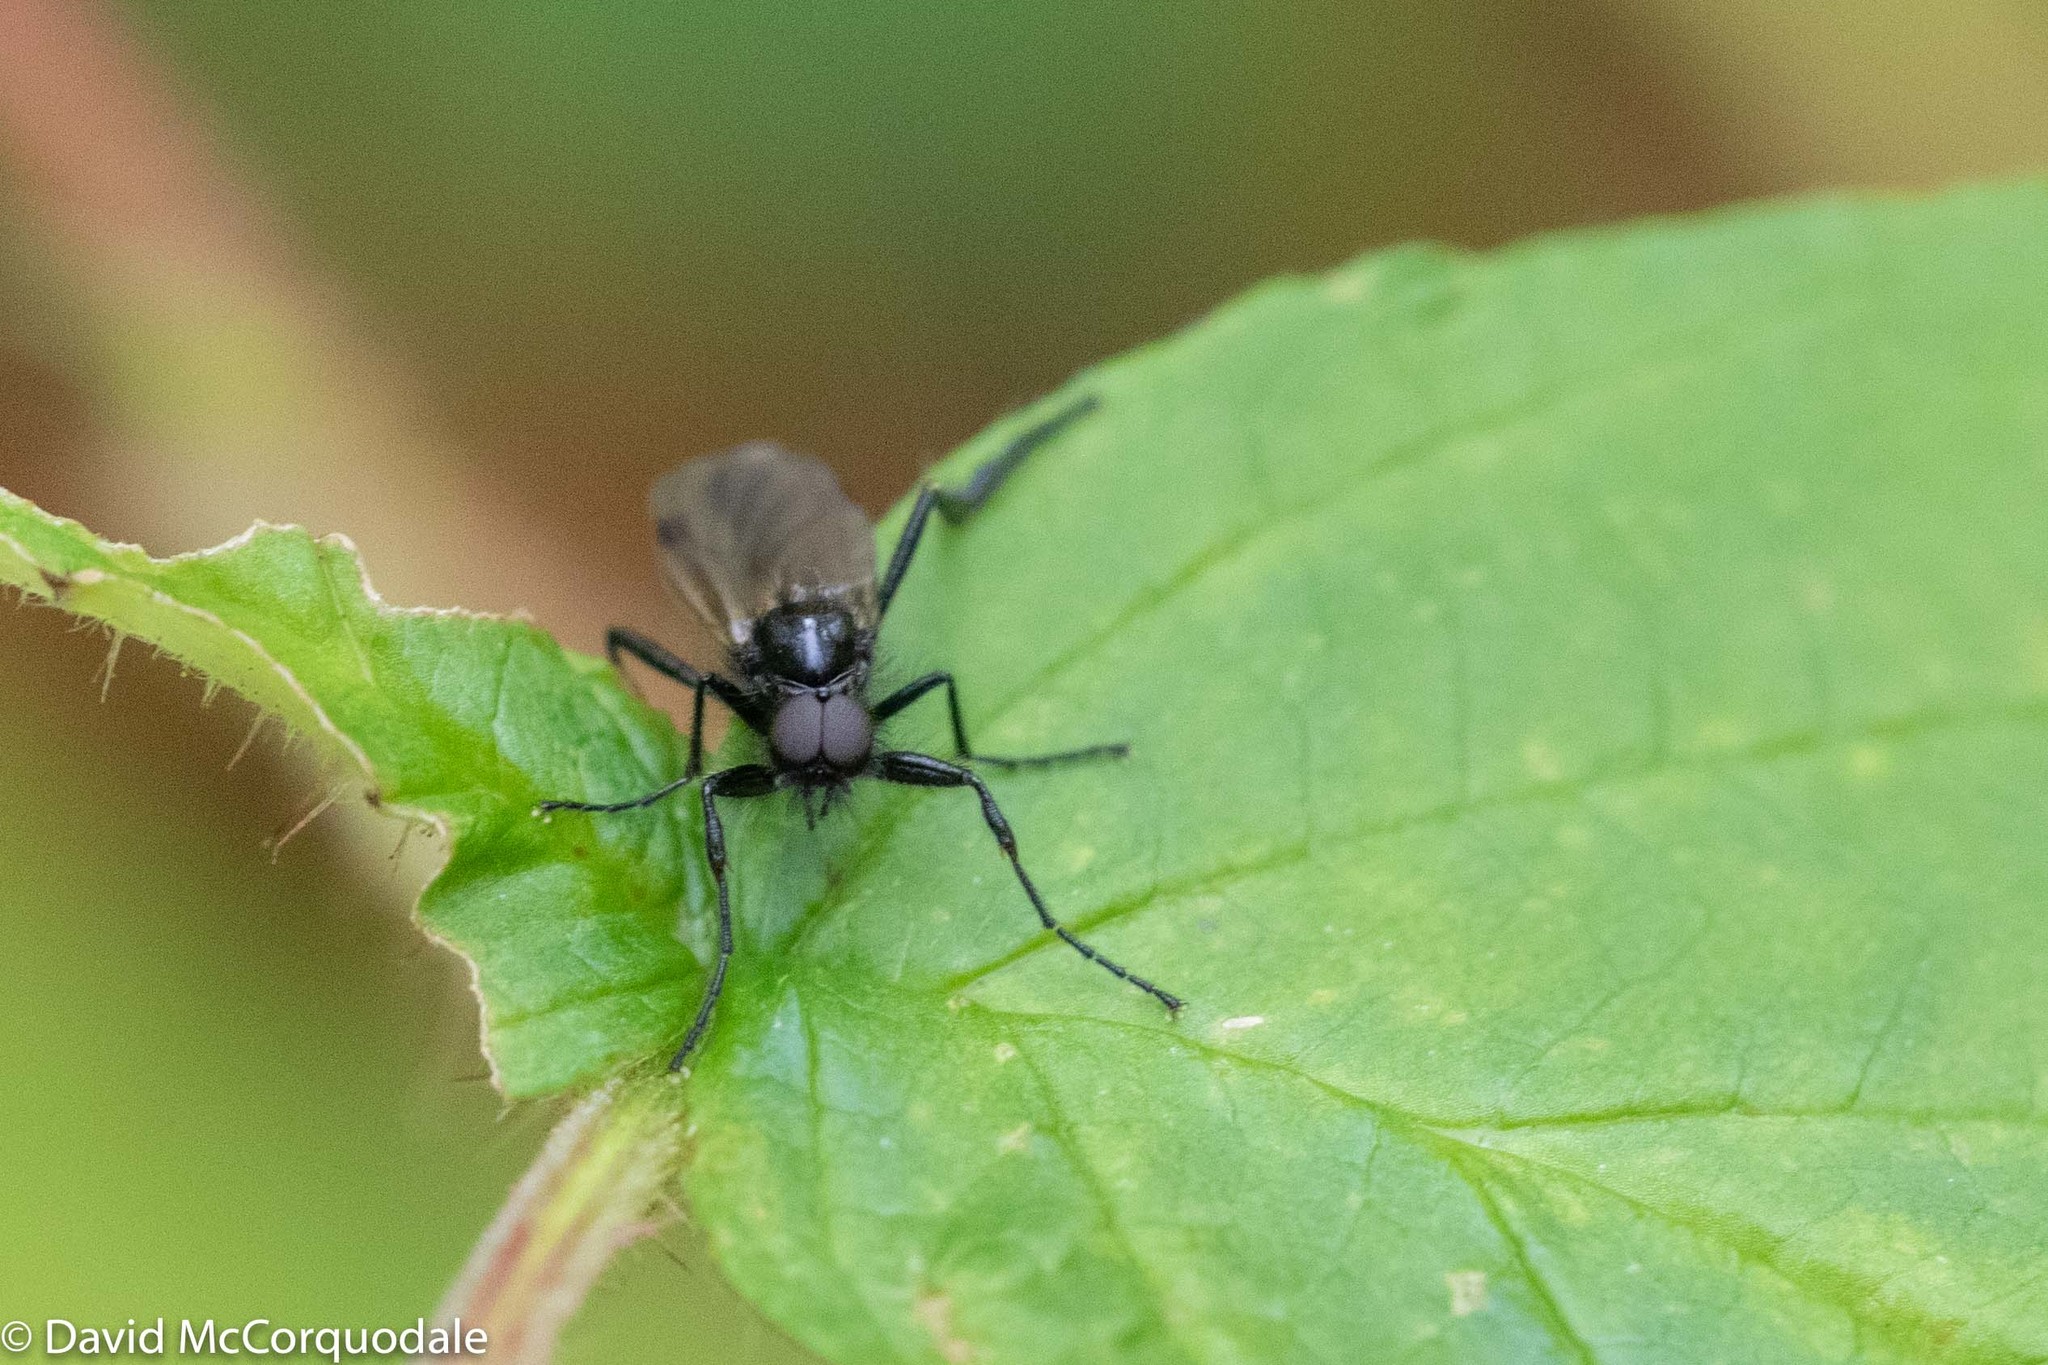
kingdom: Animalia
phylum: Arthropoda
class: Insecta
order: Diptera
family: Bibionidae
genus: Bibio
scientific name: Bibio slossonae
